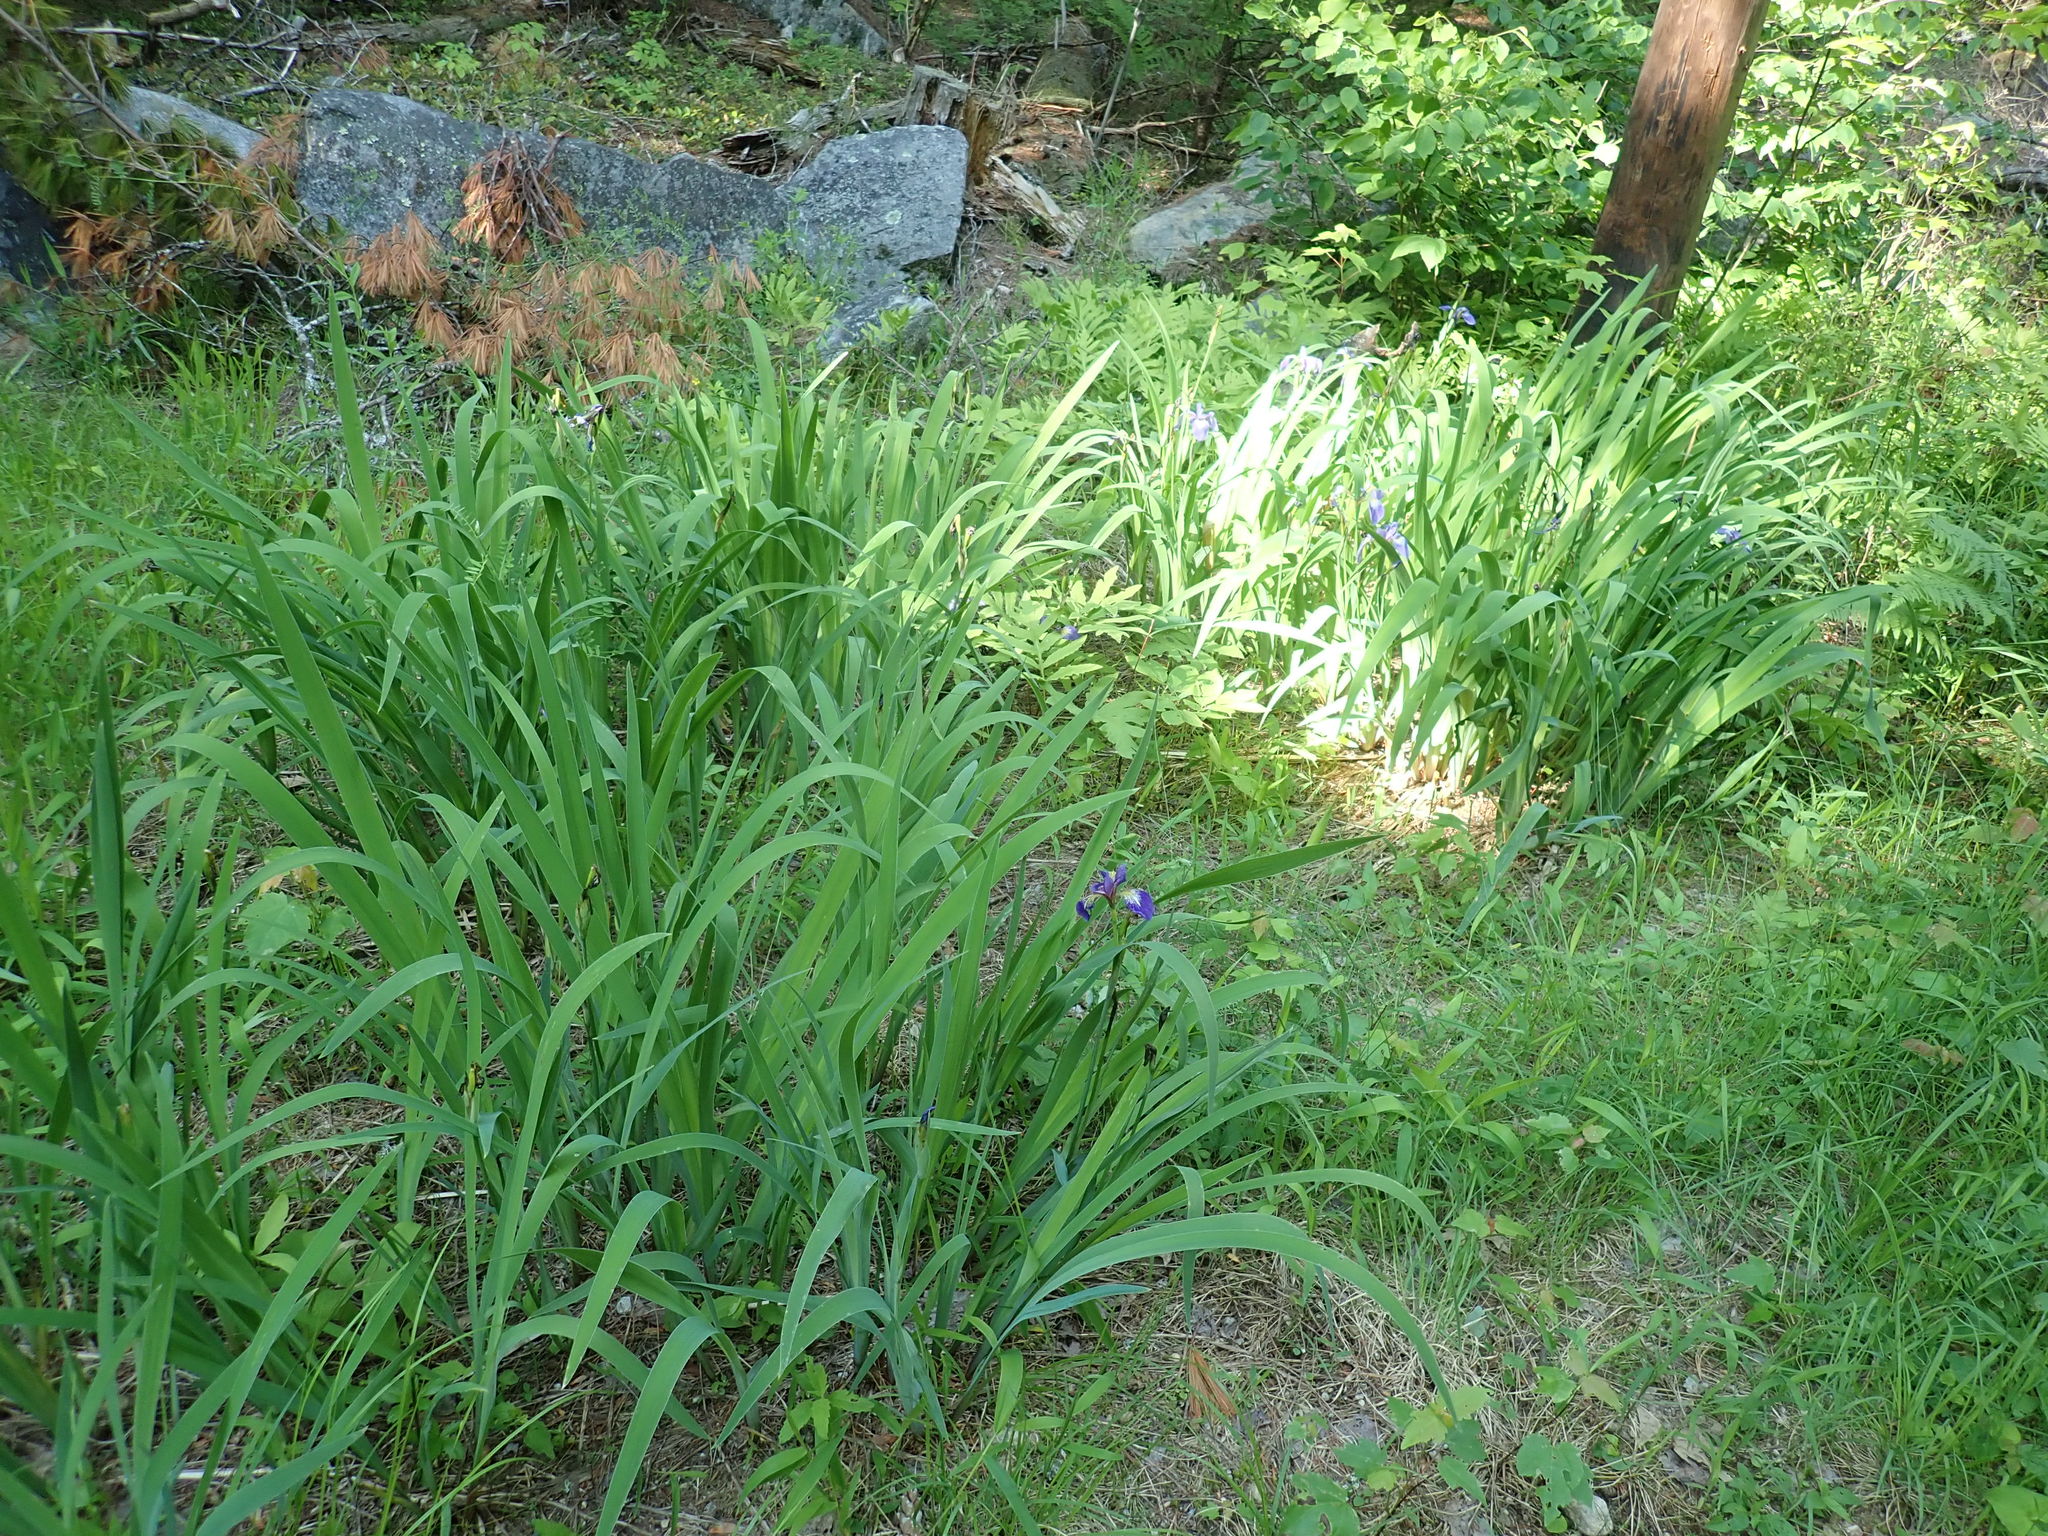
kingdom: Plantae
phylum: Tracheophyta
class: Liliopsida
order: Asparagales
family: Iridaceae
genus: Iris
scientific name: Iris versicolor
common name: Purple iris
